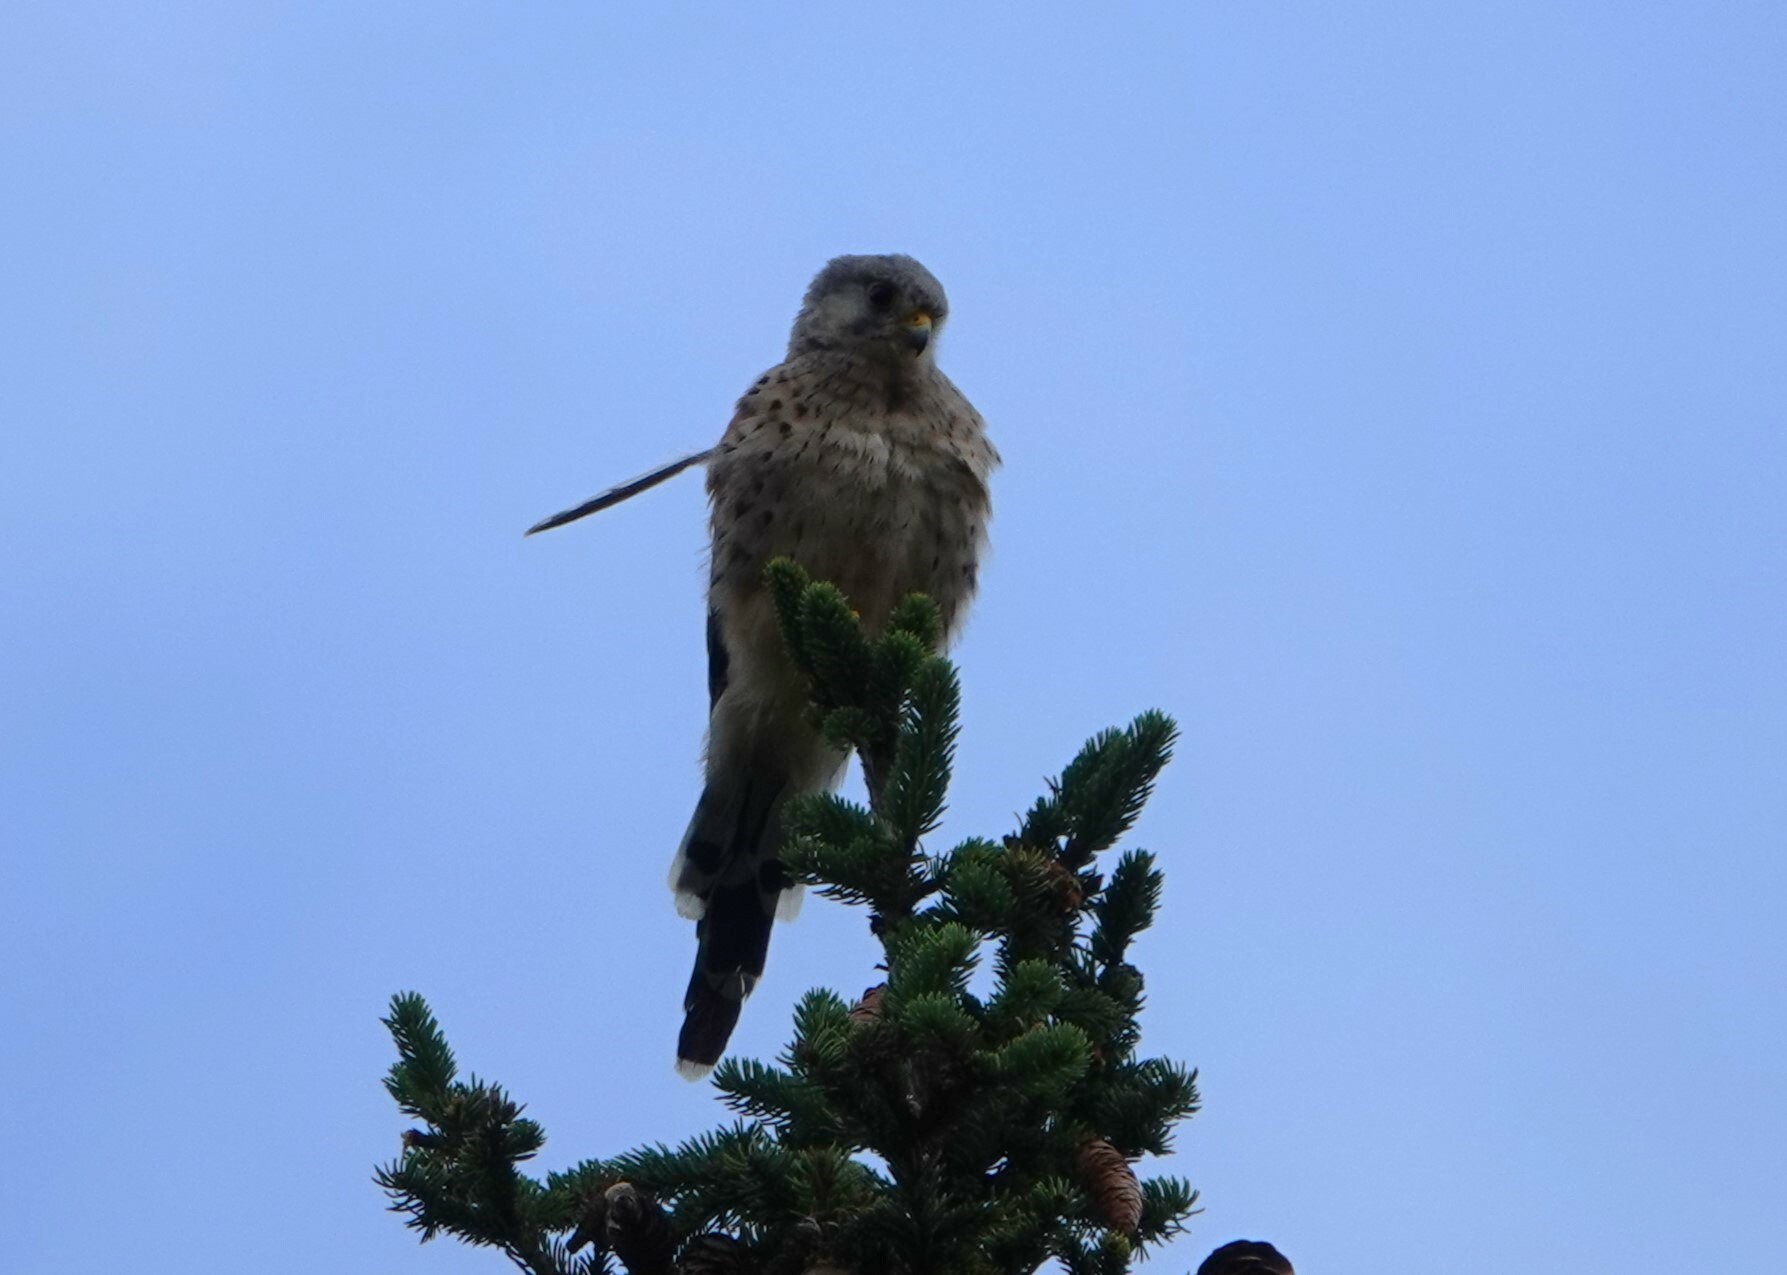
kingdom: Animalia
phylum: Chordata
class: Aves
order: Falconiformes
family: Falconidae
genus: Falco
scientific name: Falco tinnunculus
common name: Common kestrel
